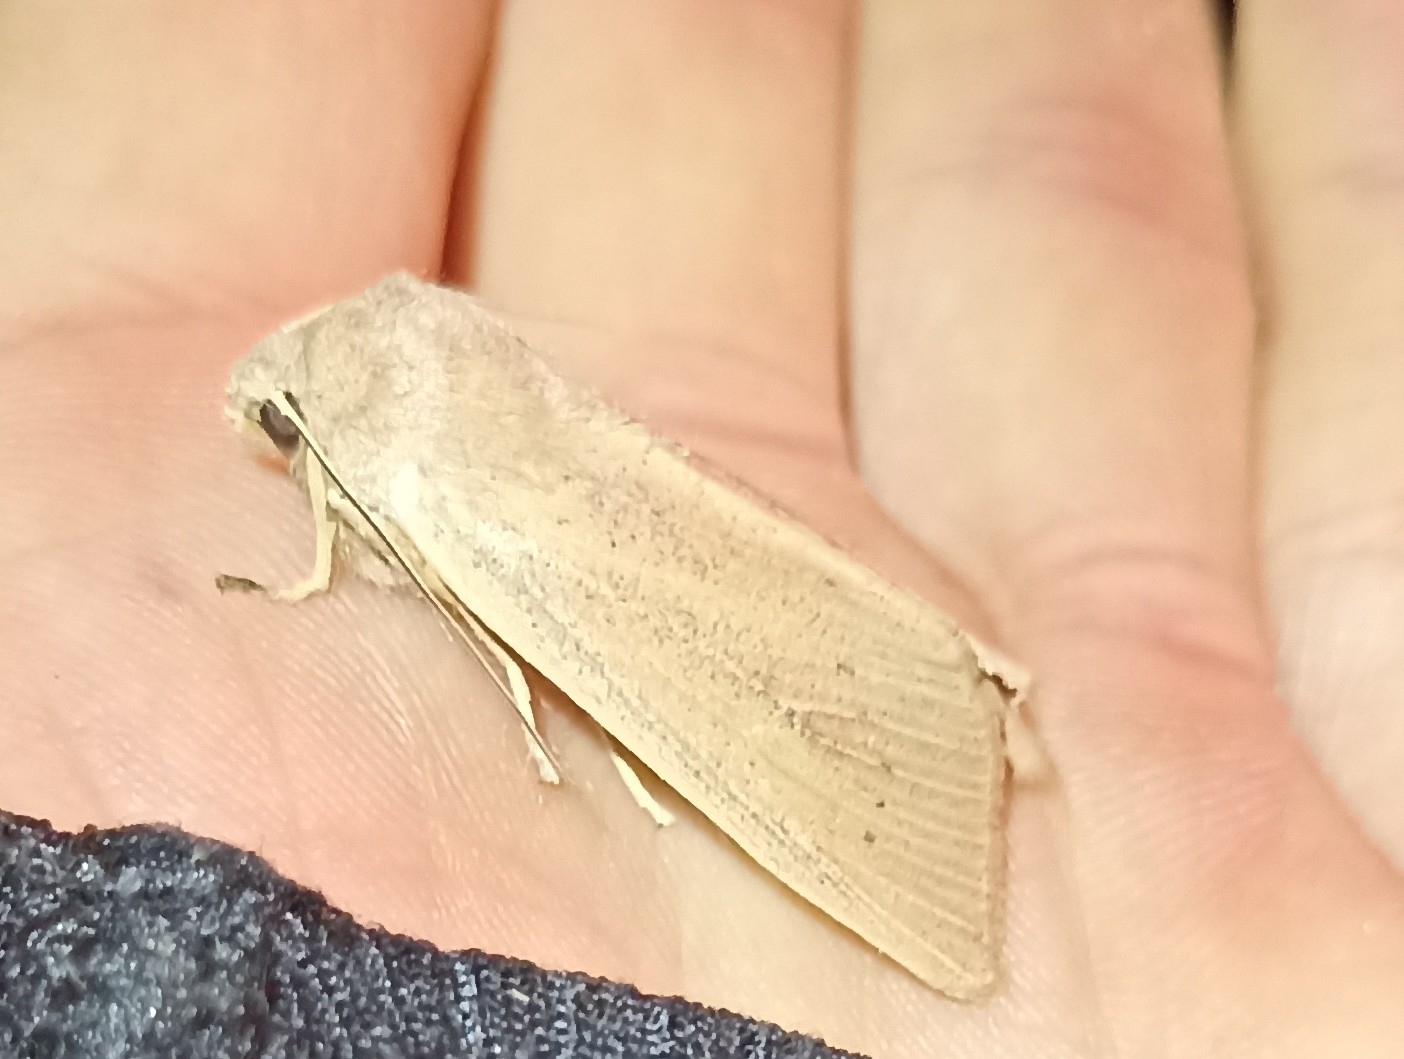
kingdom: Animalia
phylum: Arthropoda
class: Insecta
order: Lepidoptera
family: Noctuidae
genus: Rhizedra
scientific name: Rhizedra lutosa
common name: Large wainscot
